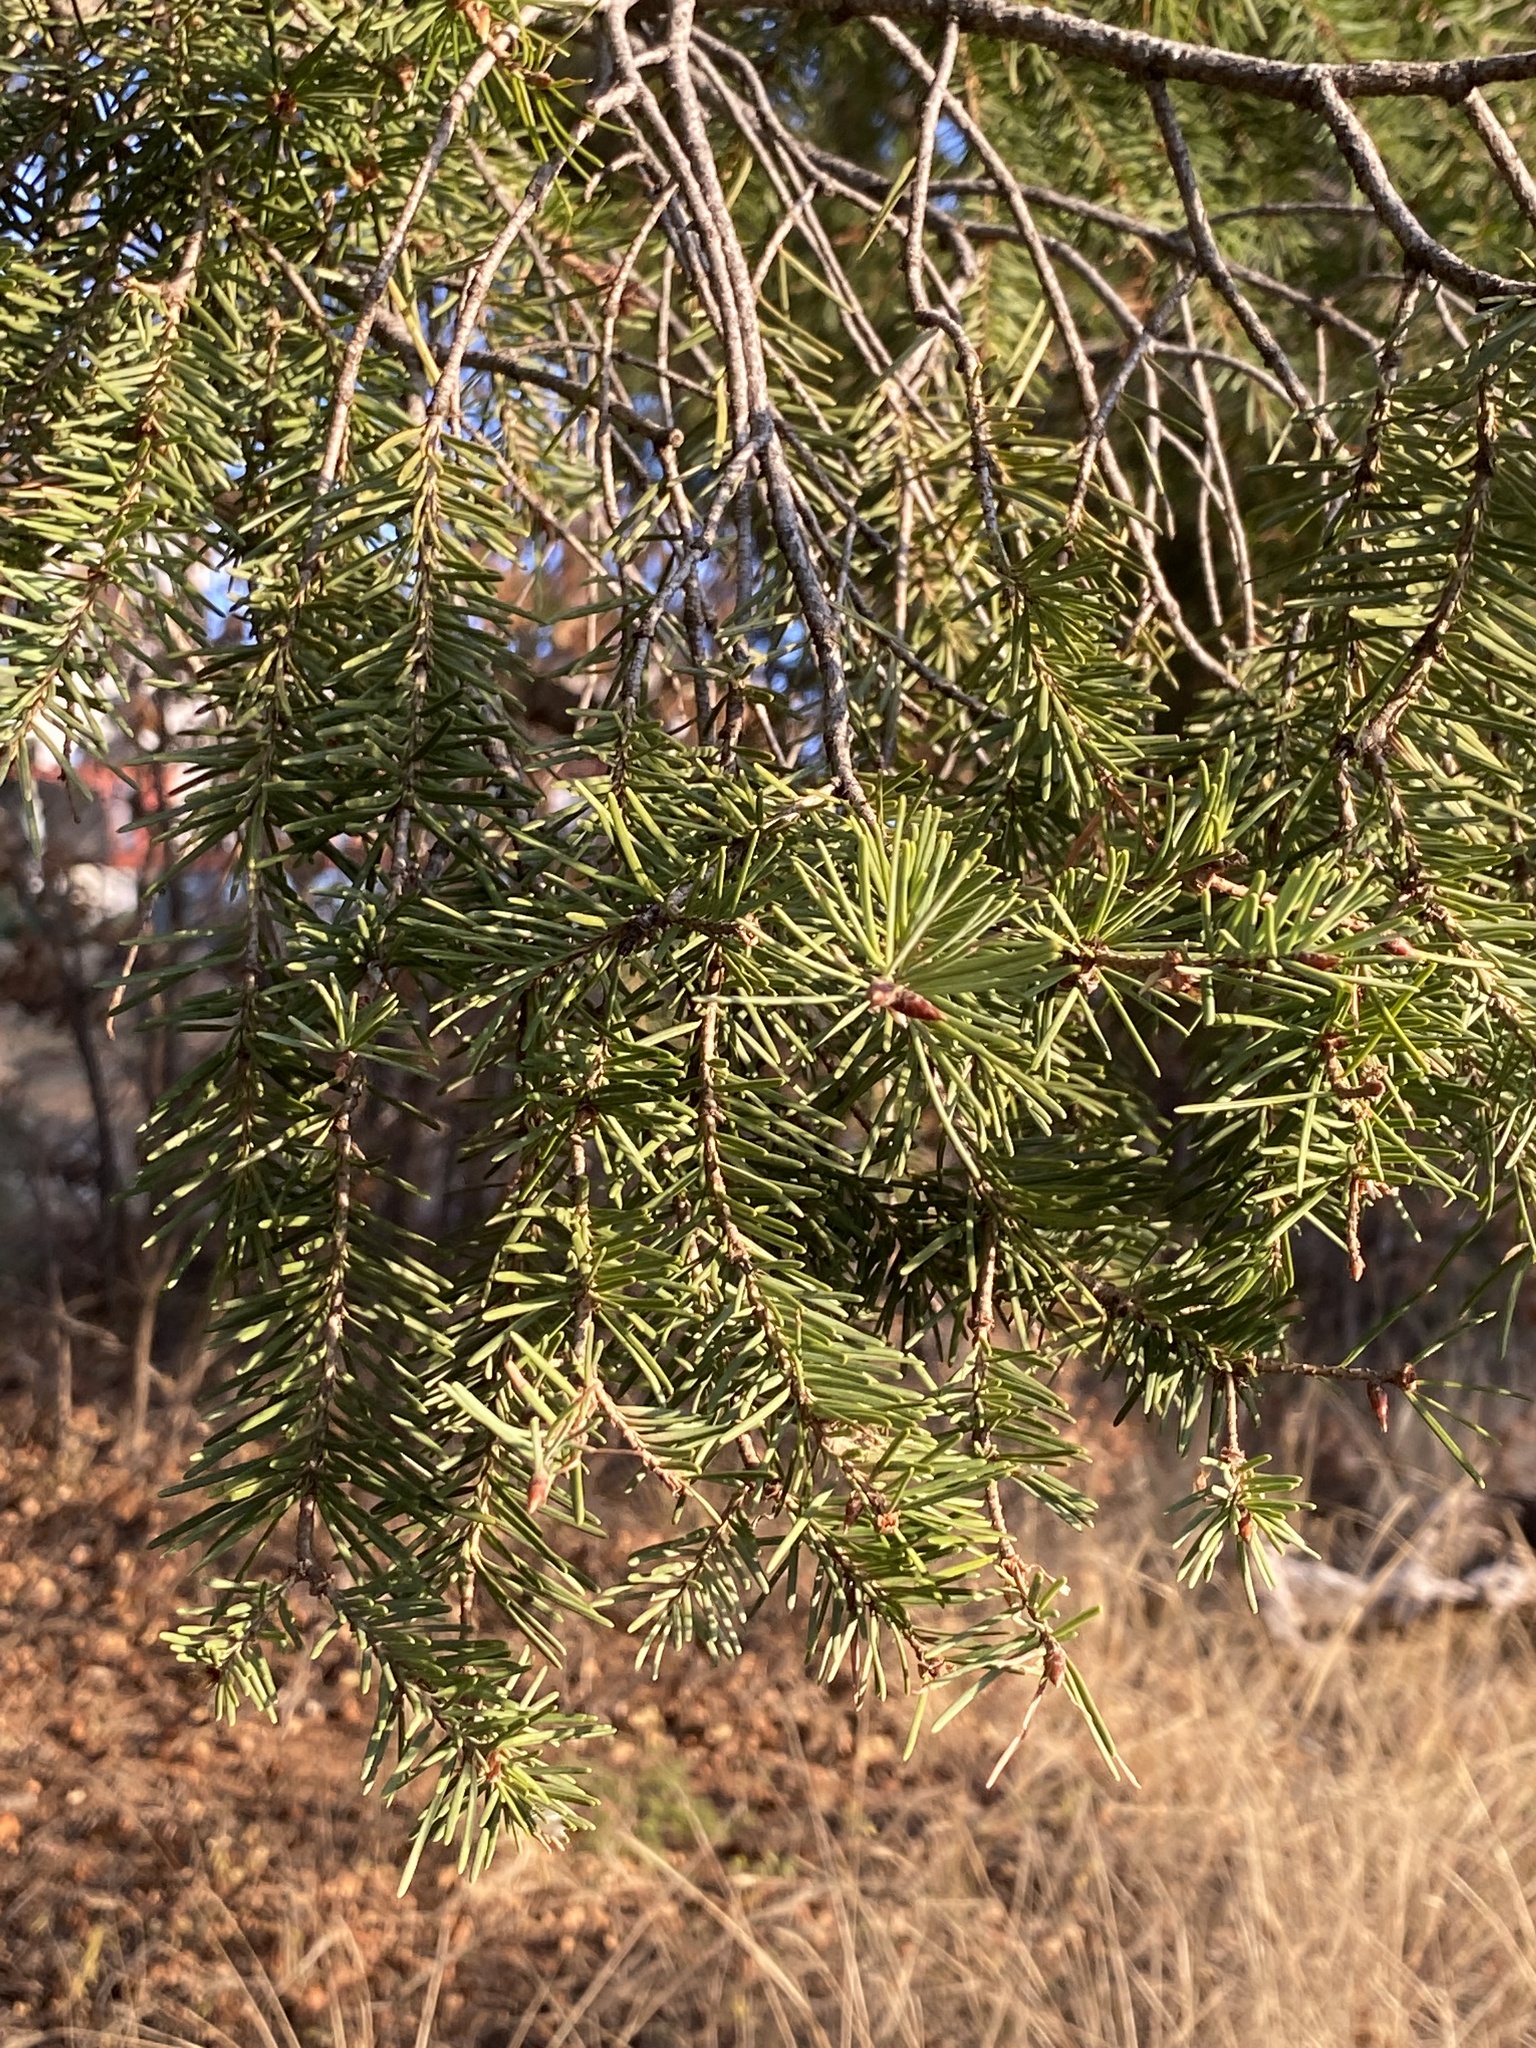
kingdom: Plantae
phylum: Tracheophyta
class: Pinopsida
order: Pinales
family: Pinaceae
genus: Pseudotsuga
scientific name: Pseudotsuga menziesii
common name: Douglas fir
